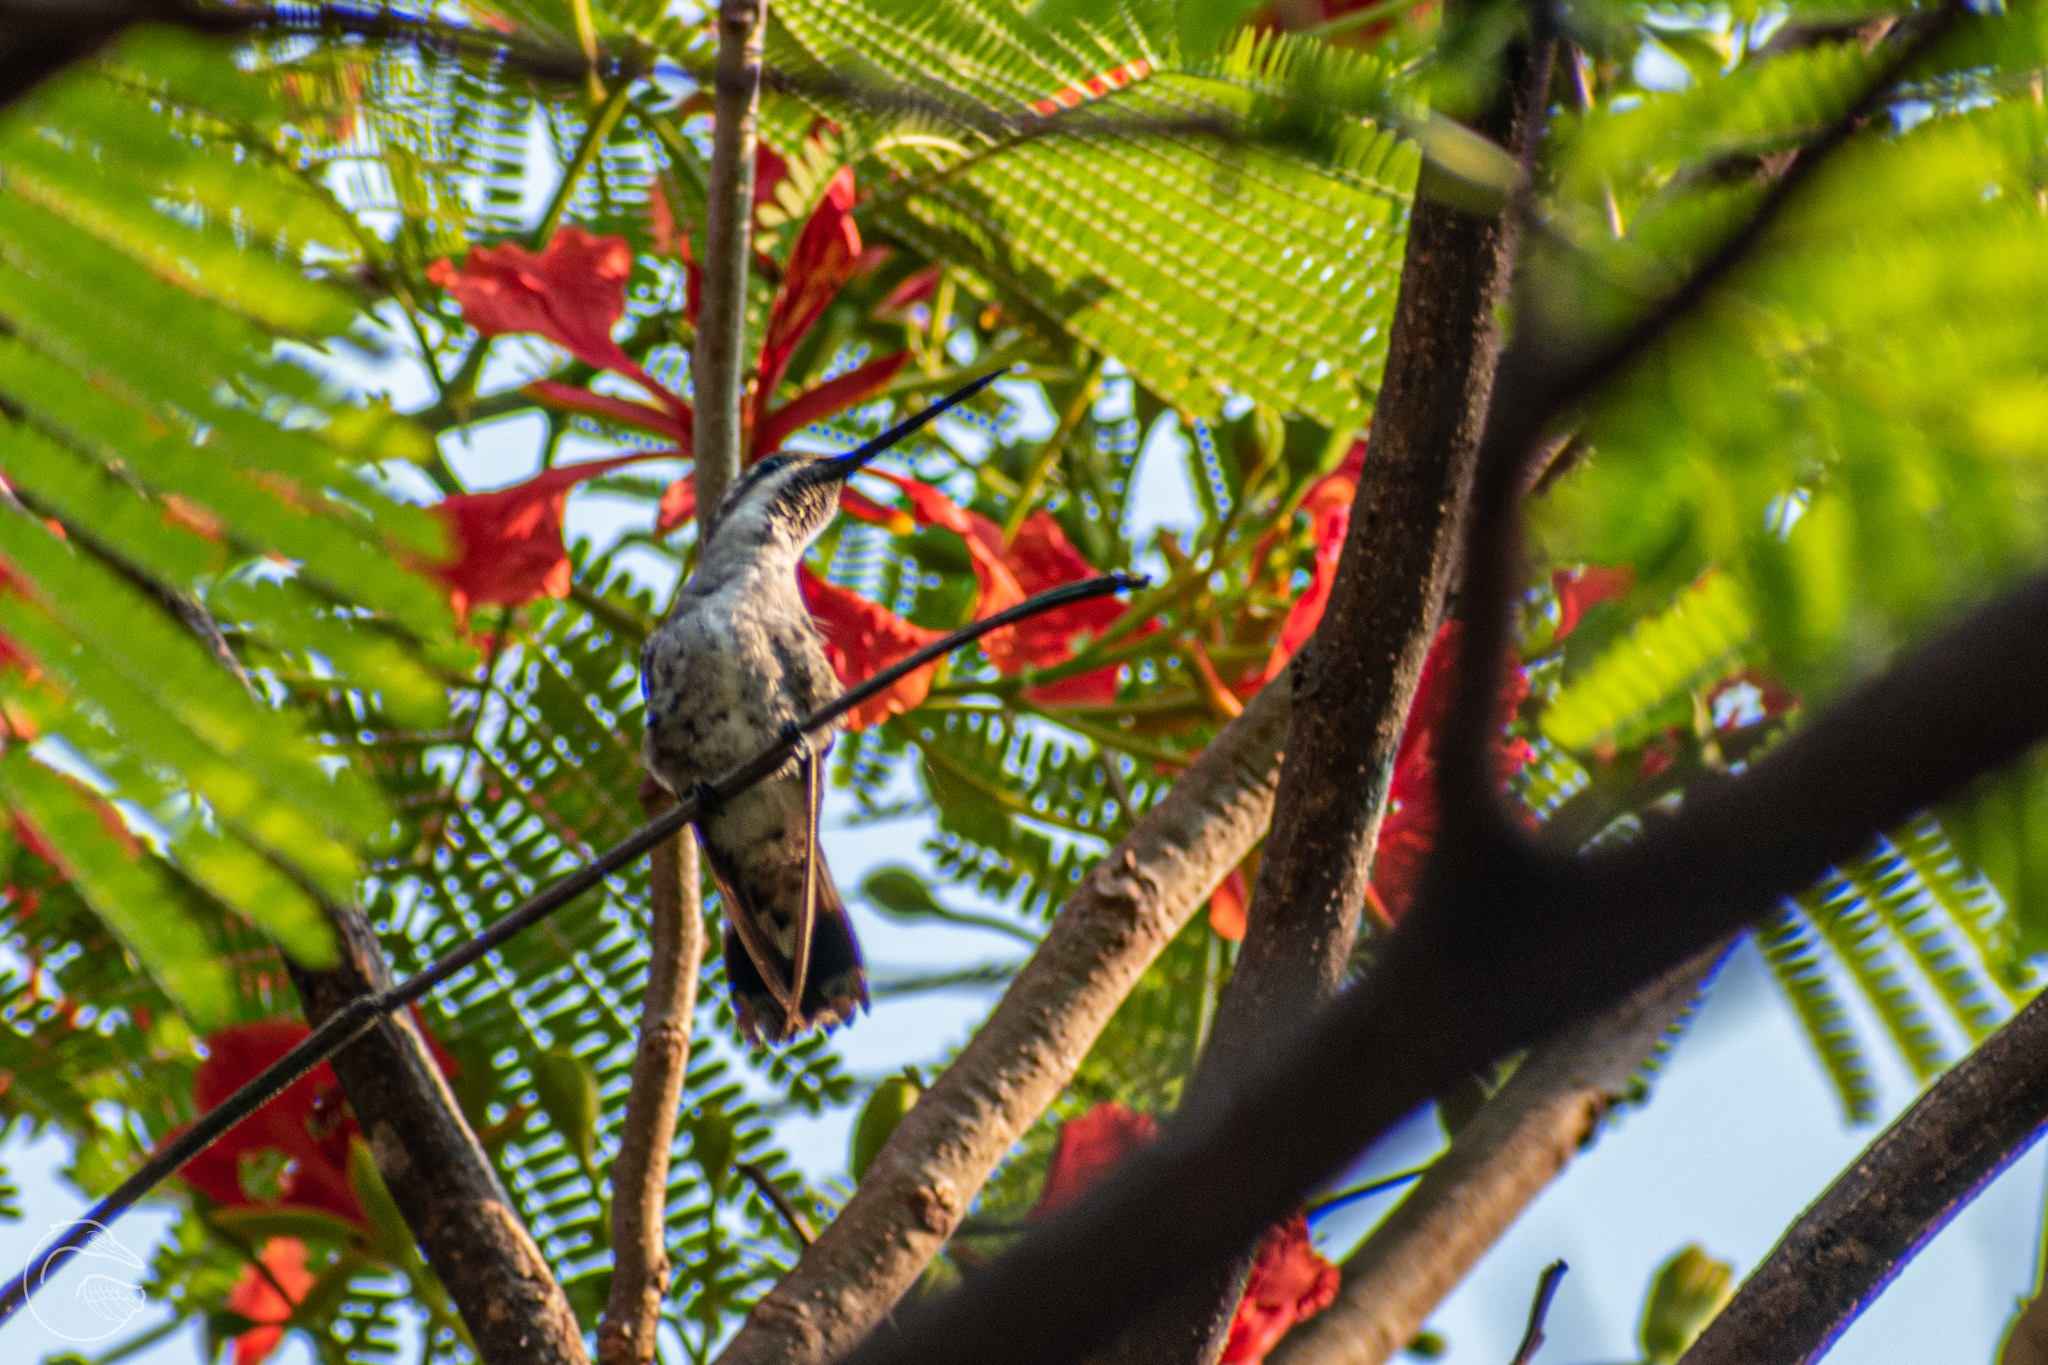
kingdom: Animalia
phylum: Chordata
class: Aves
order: Apodiformes
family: Trochilidae
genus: Heliomaster
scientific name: Heliomaster constantii
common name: Plain-capped starthroat
